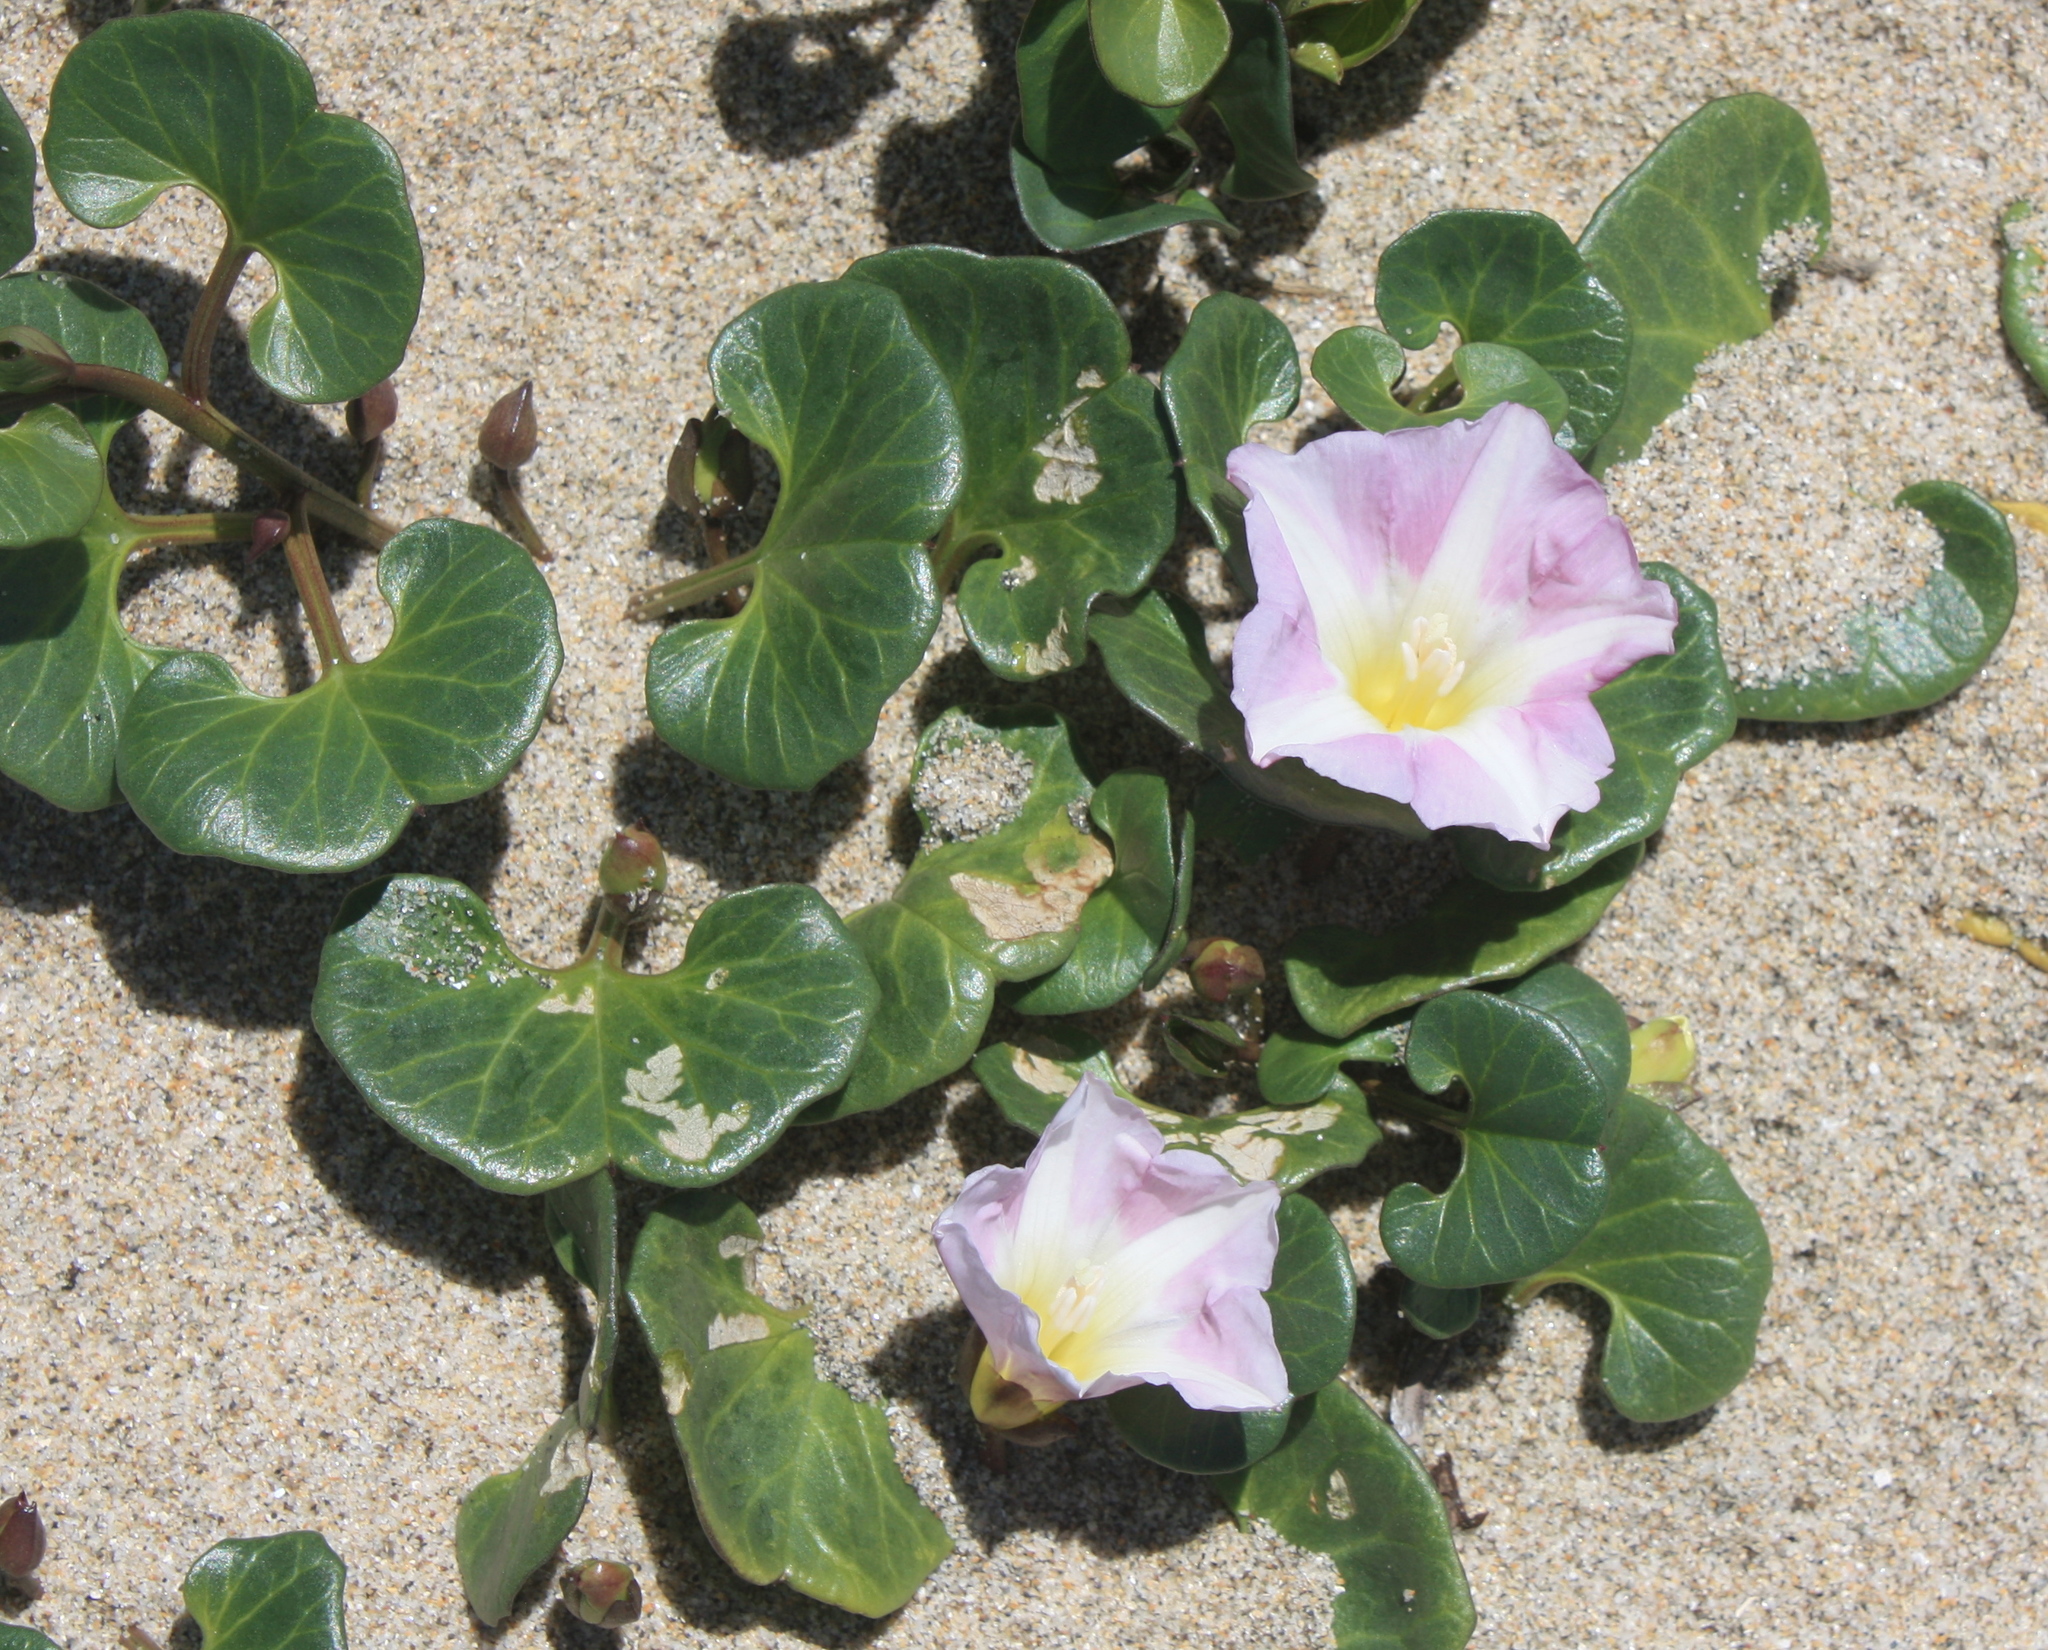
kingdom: Plantae
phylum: Tracheophyta
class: Magnoliopsida
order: Solanales
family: Convolvulaceae
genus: Calystegia
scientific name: Calystegia soldanella
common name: Sea bindweed
